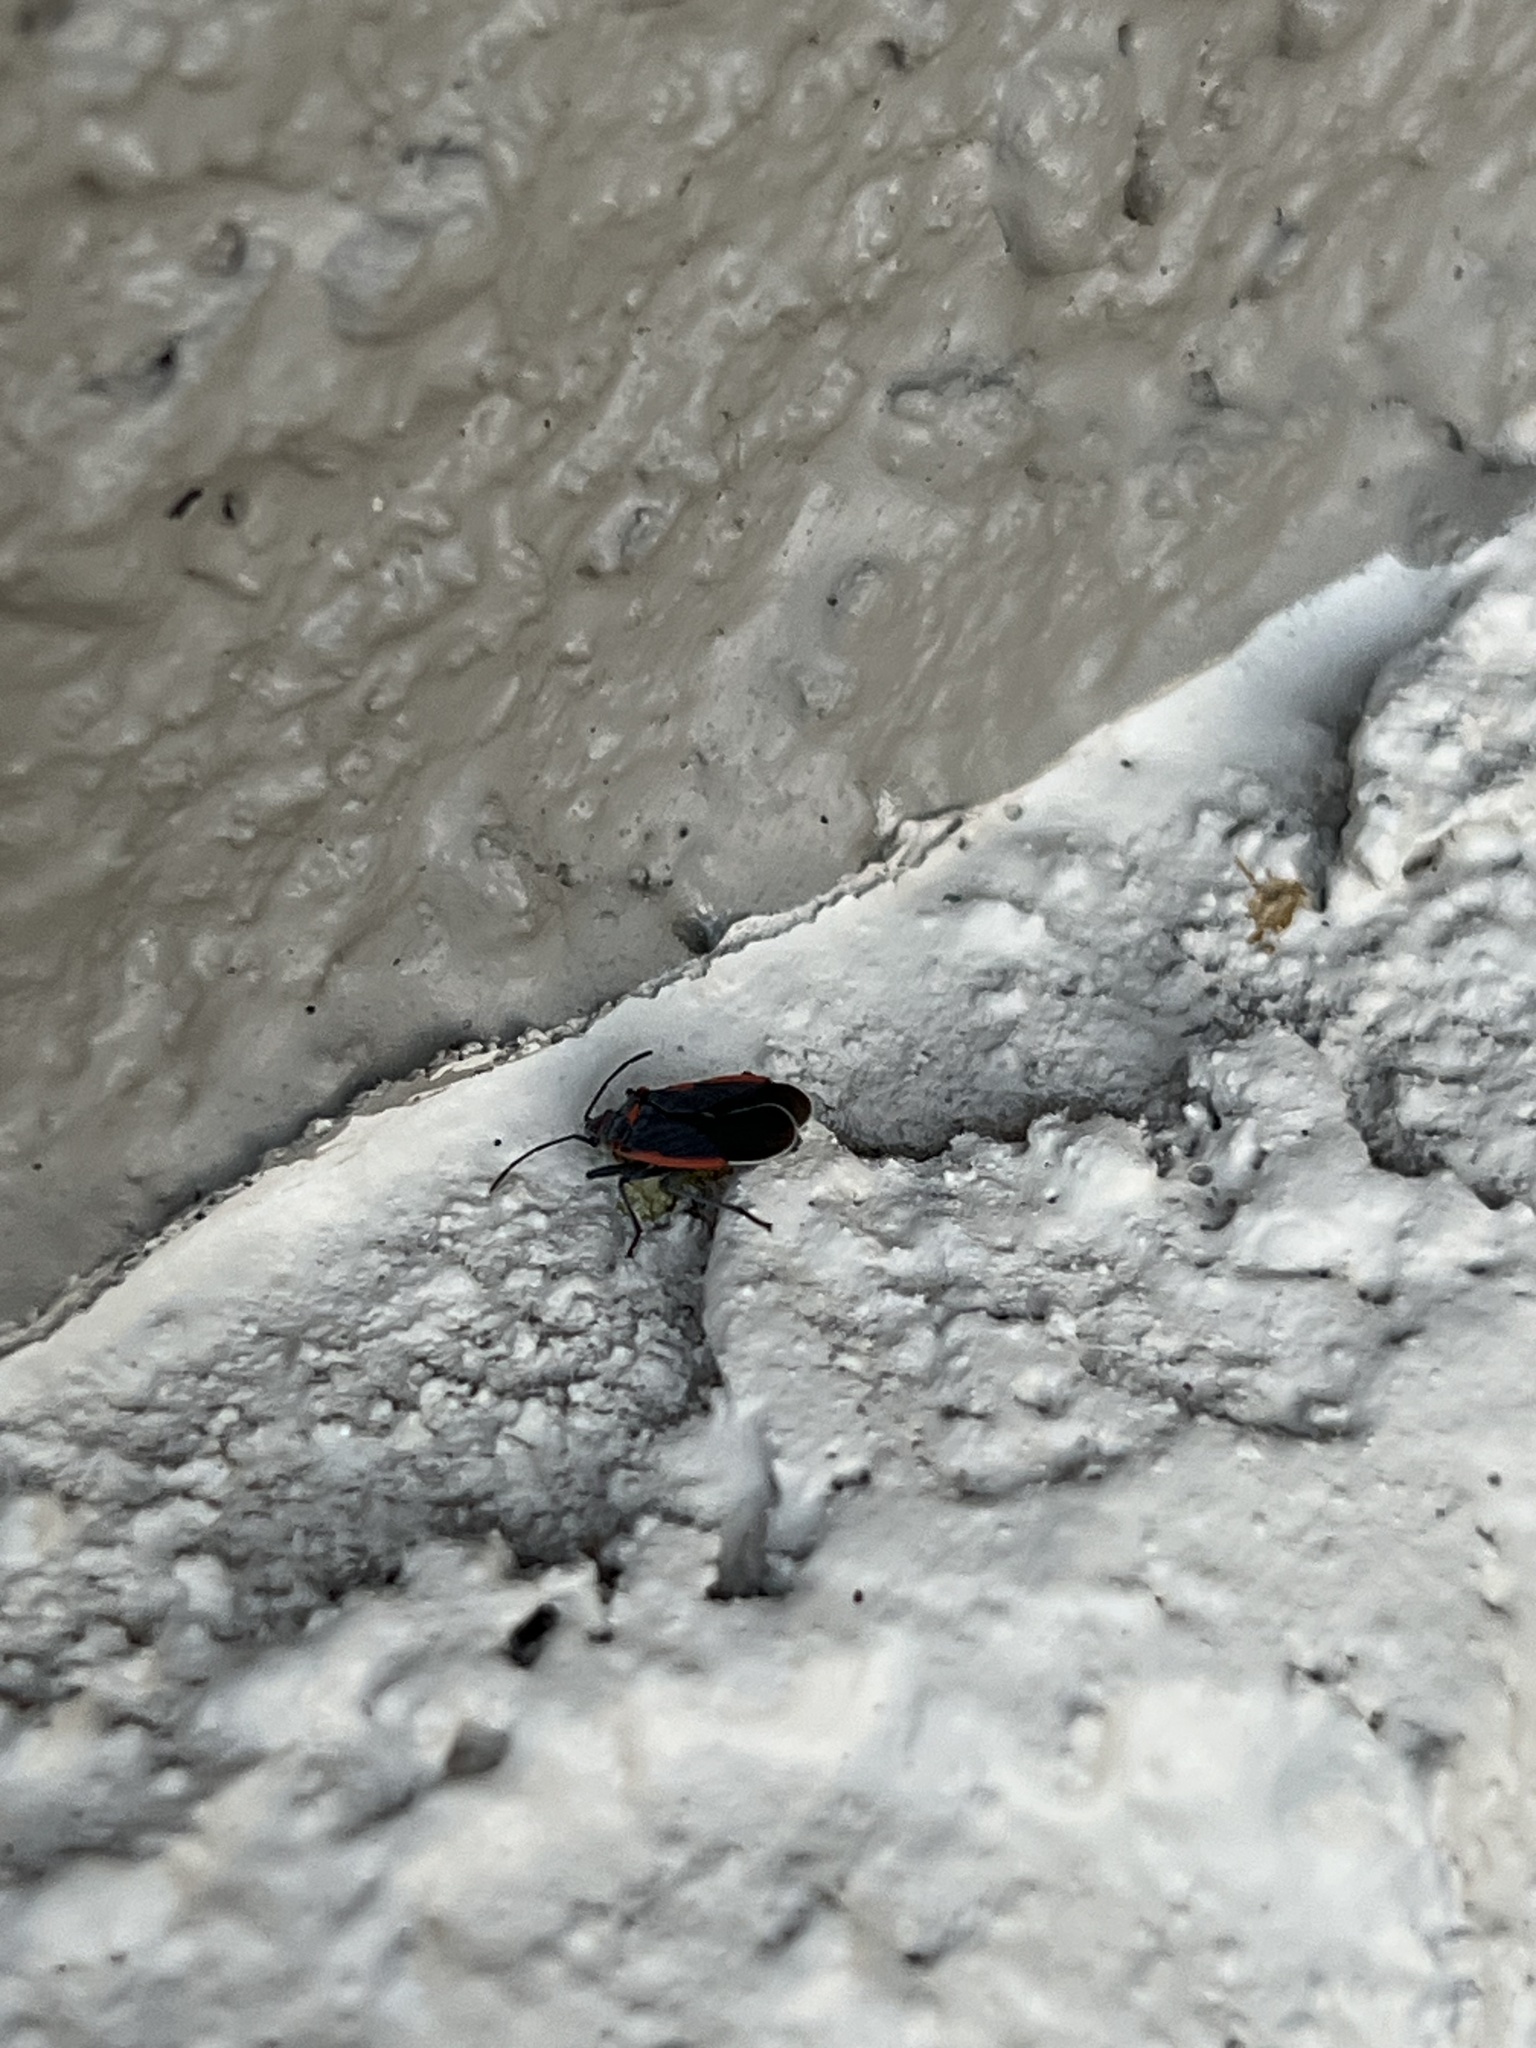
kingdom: Animalia
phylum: Arthropoda
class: Insecta
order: Hemiptera
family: Lygaeidae
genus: Melacoryphus
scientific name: Melacoryphus lateralis
